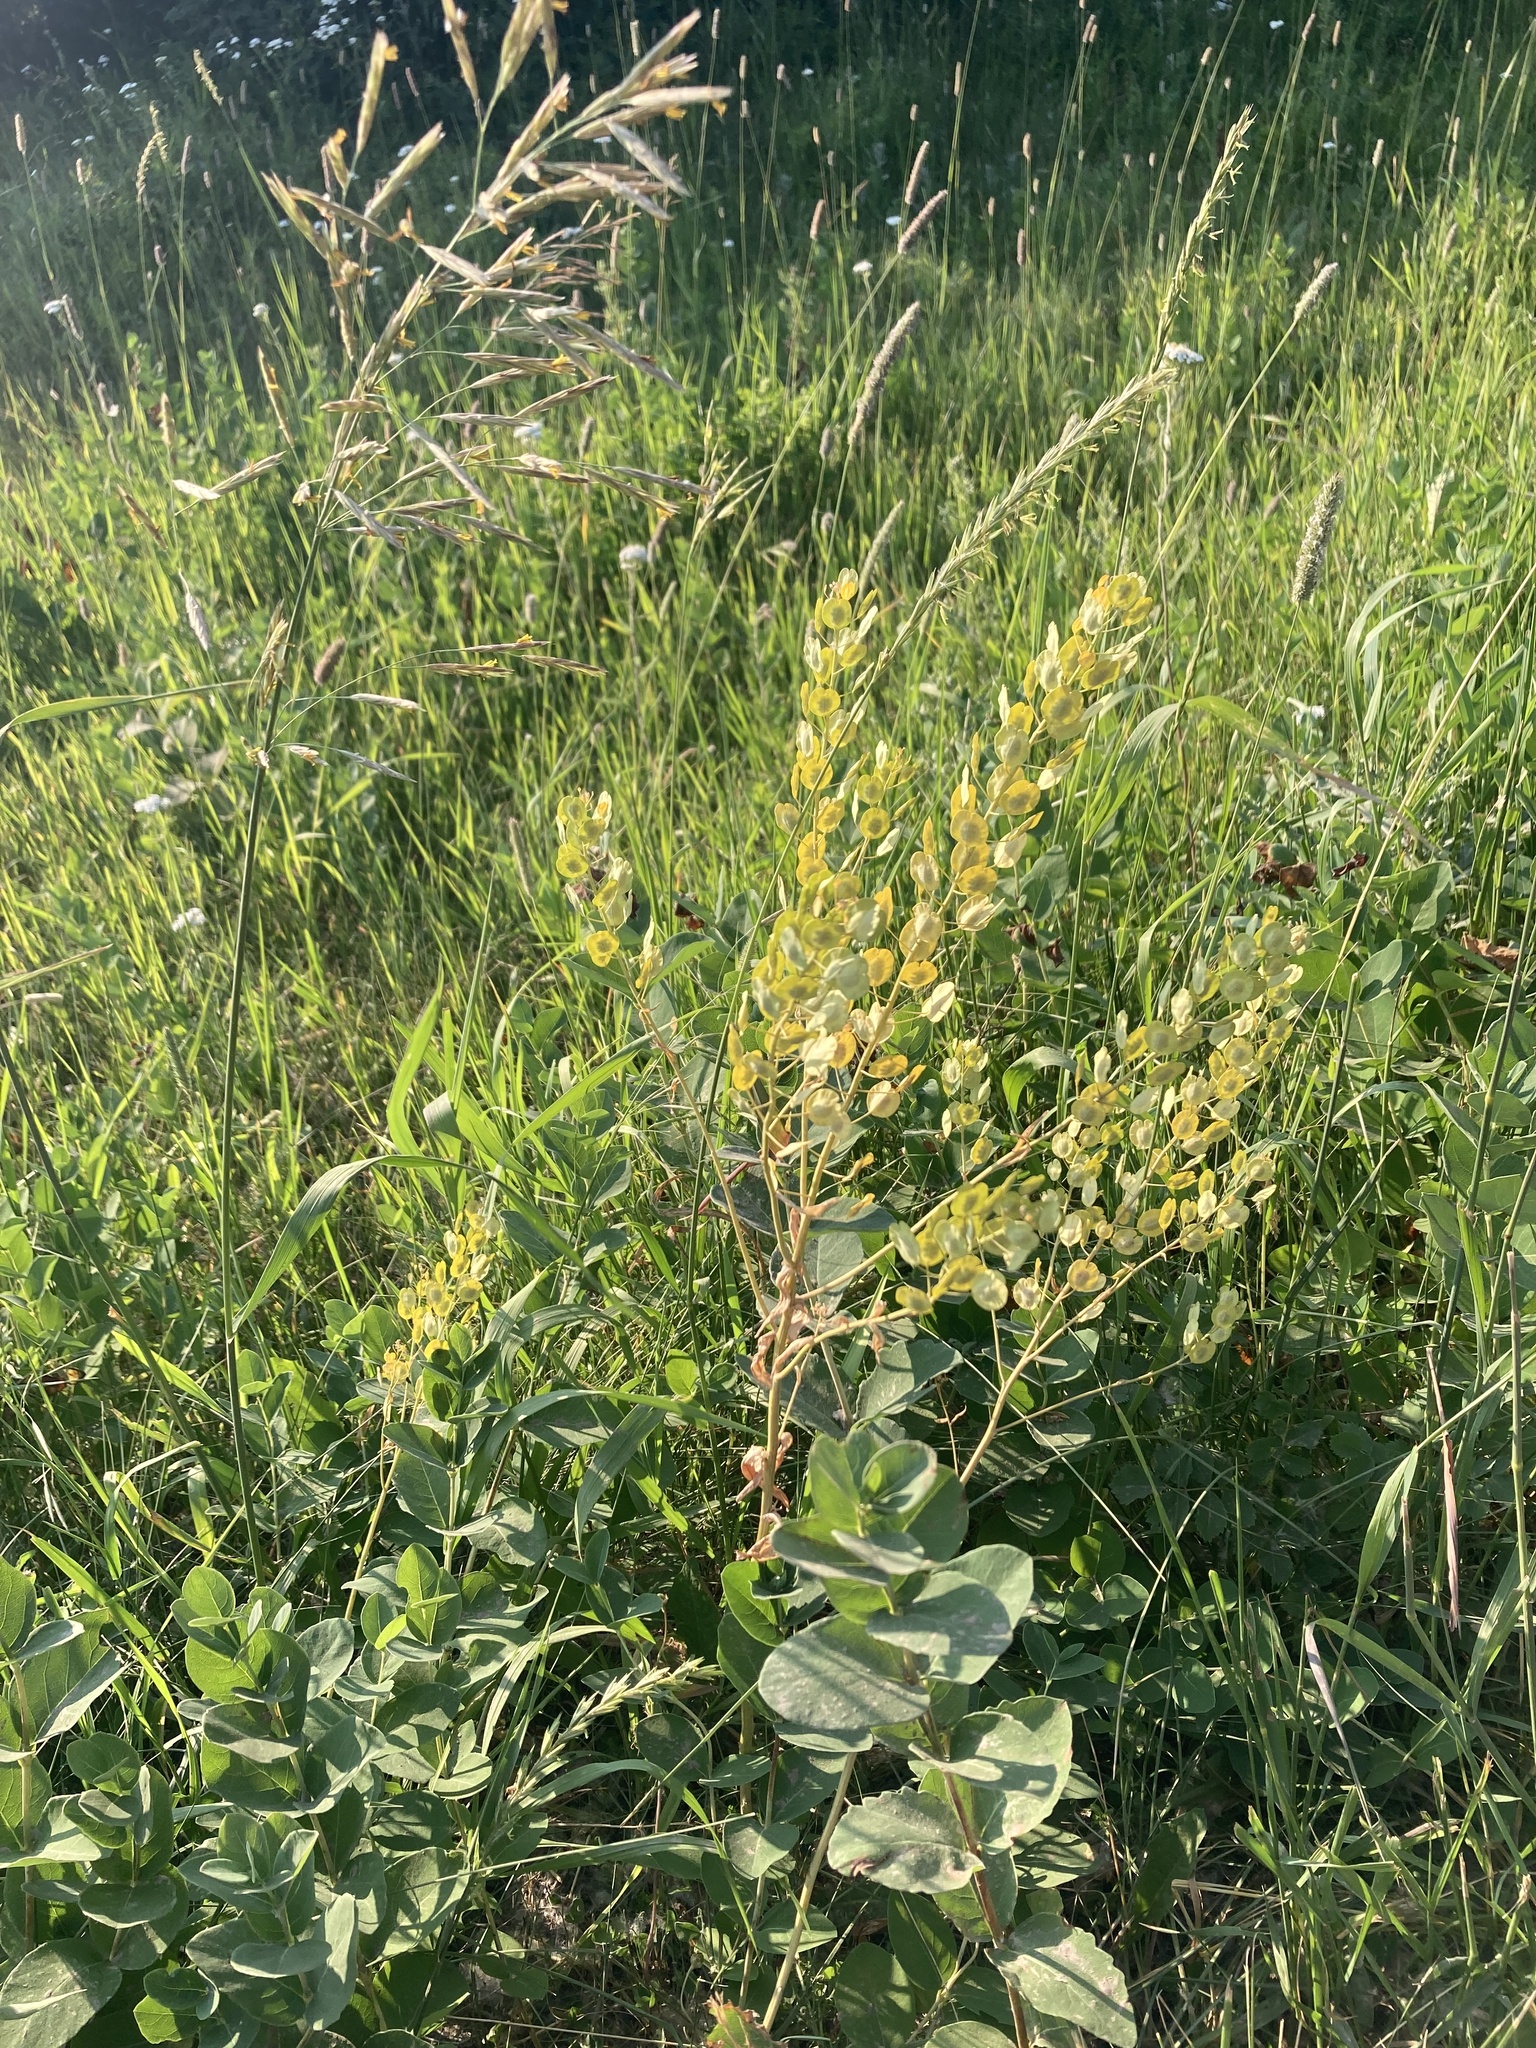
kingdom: Plantae
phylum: Tracheophyta
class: Magnoliopsida
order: Brassicales
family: Brassicaceae
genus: Thlaspi
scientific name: Thlaspi arvense
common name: Field pennycress
